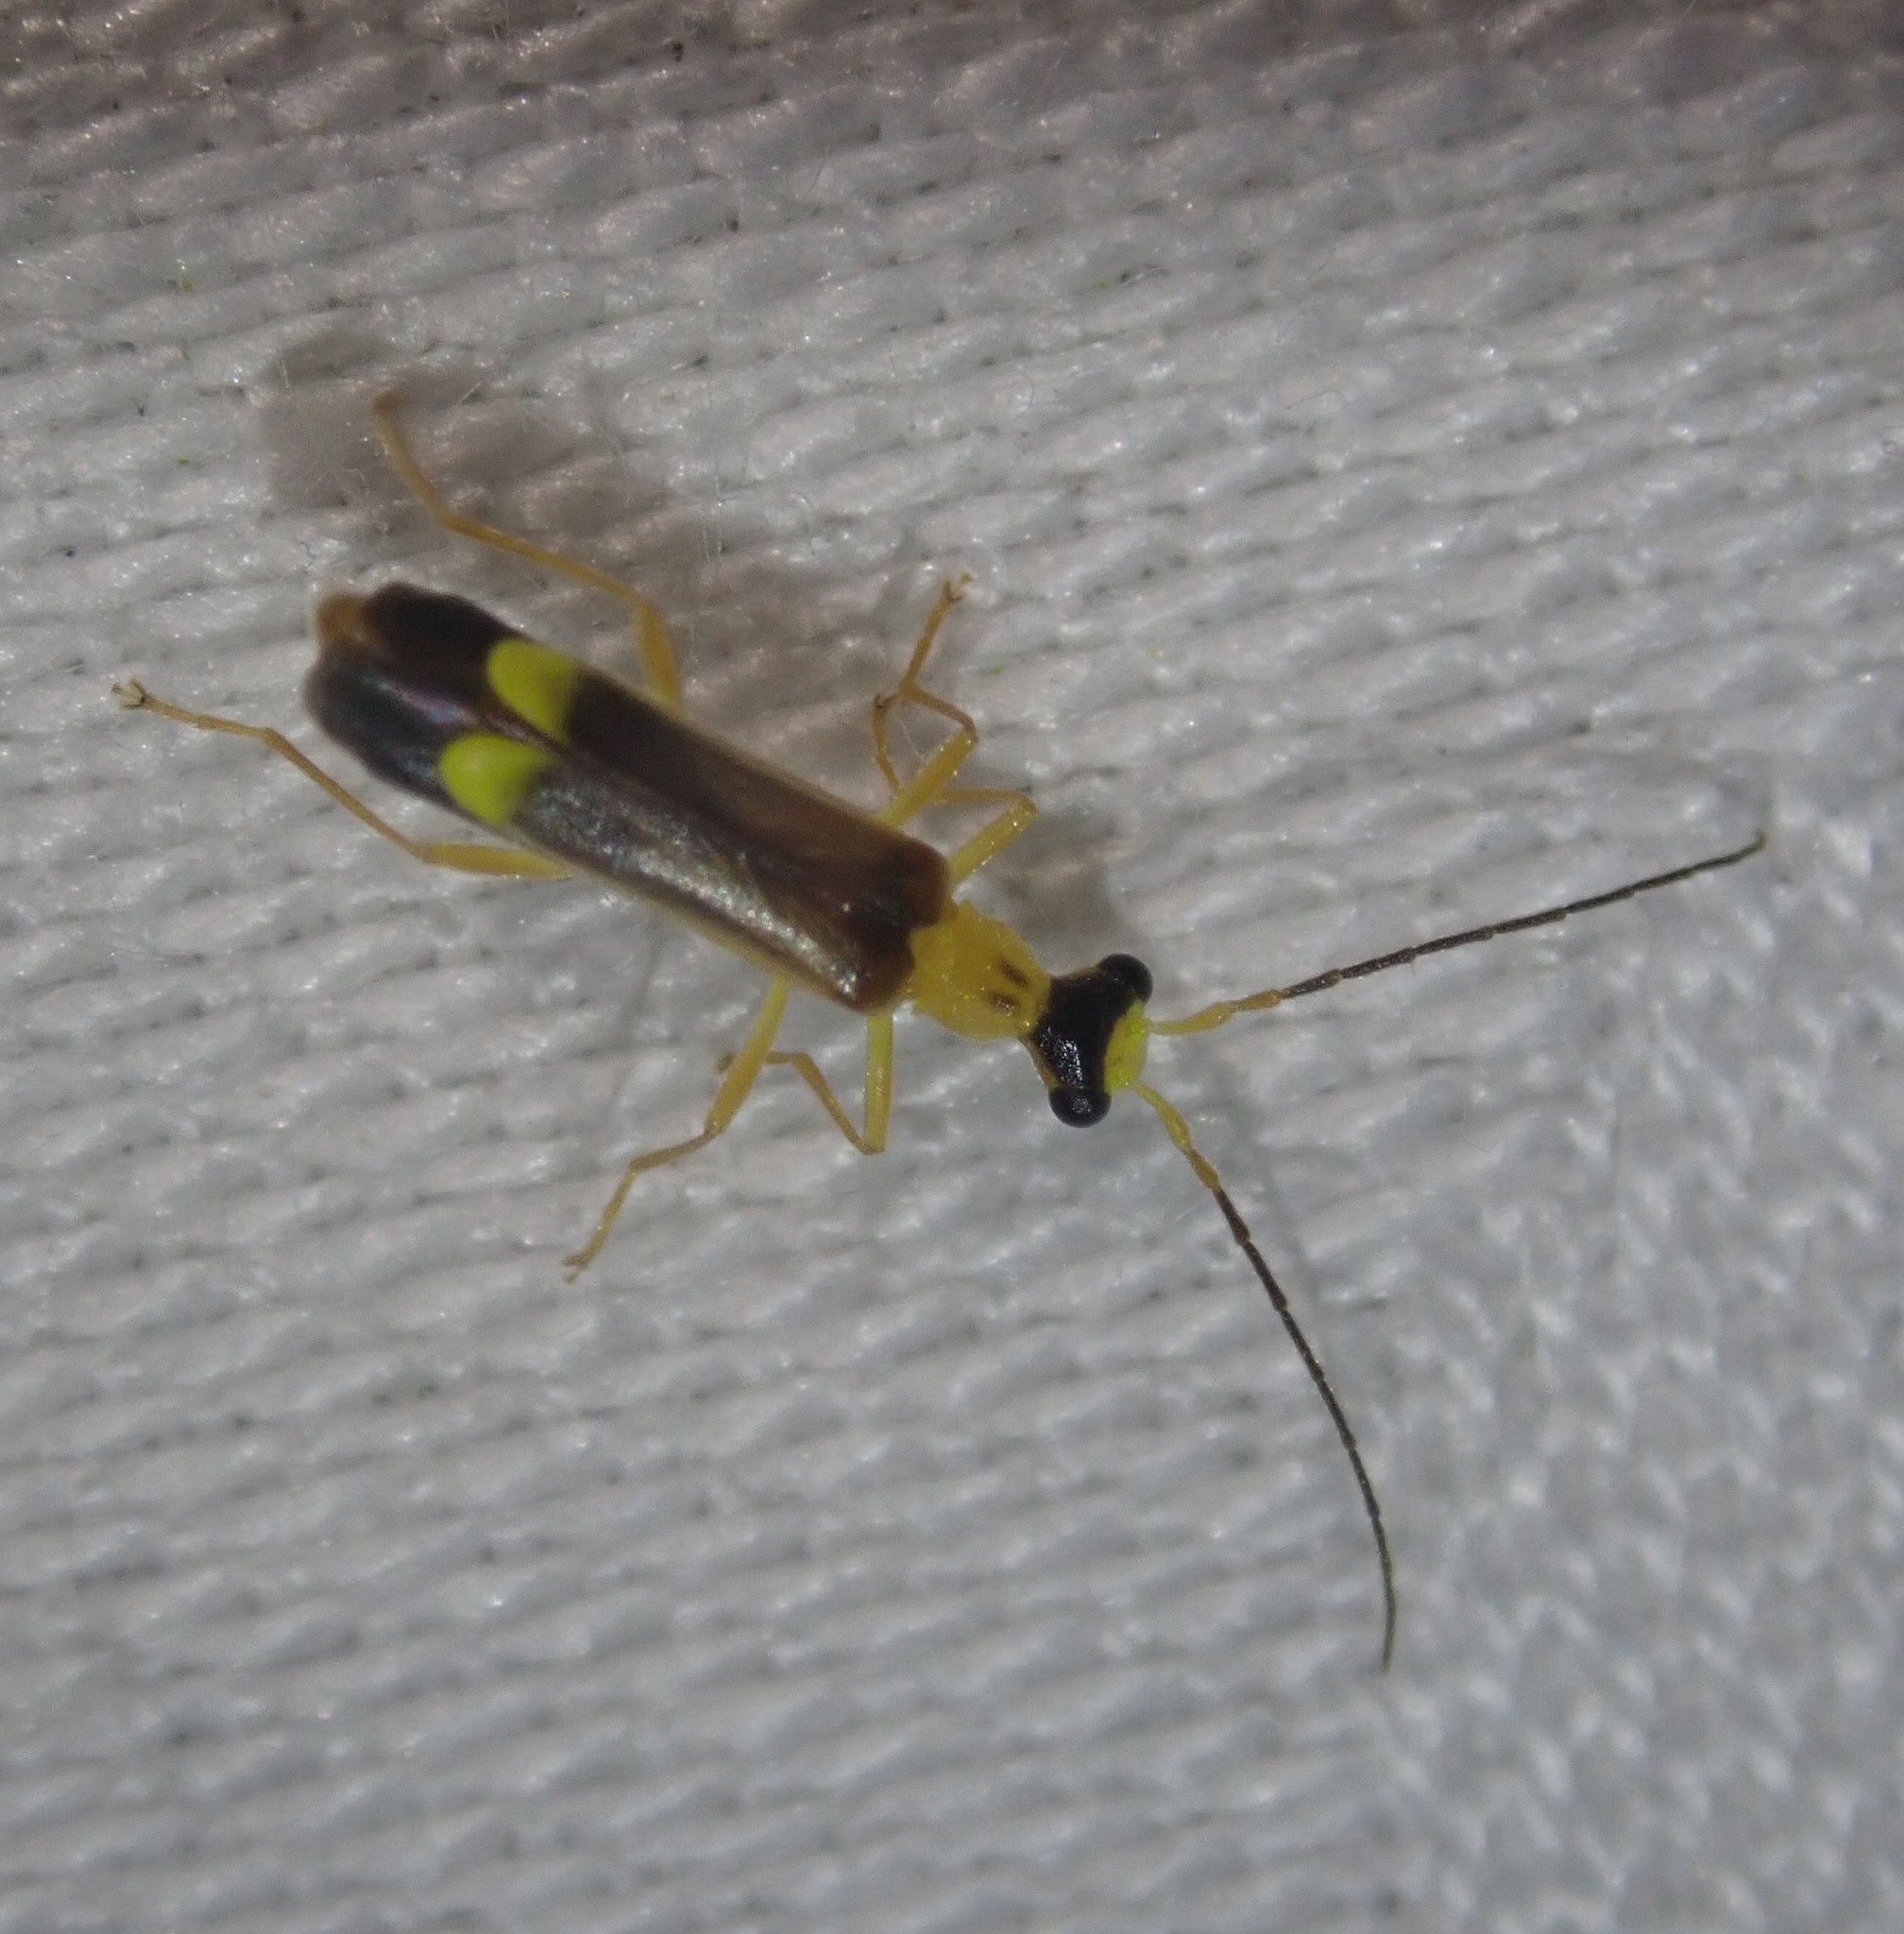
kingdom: Animalia
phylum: Arthropoda
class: Insecta
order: Coleoptera
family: Cantharidae
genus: Malthinus
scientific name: Malthinus flaveolus
